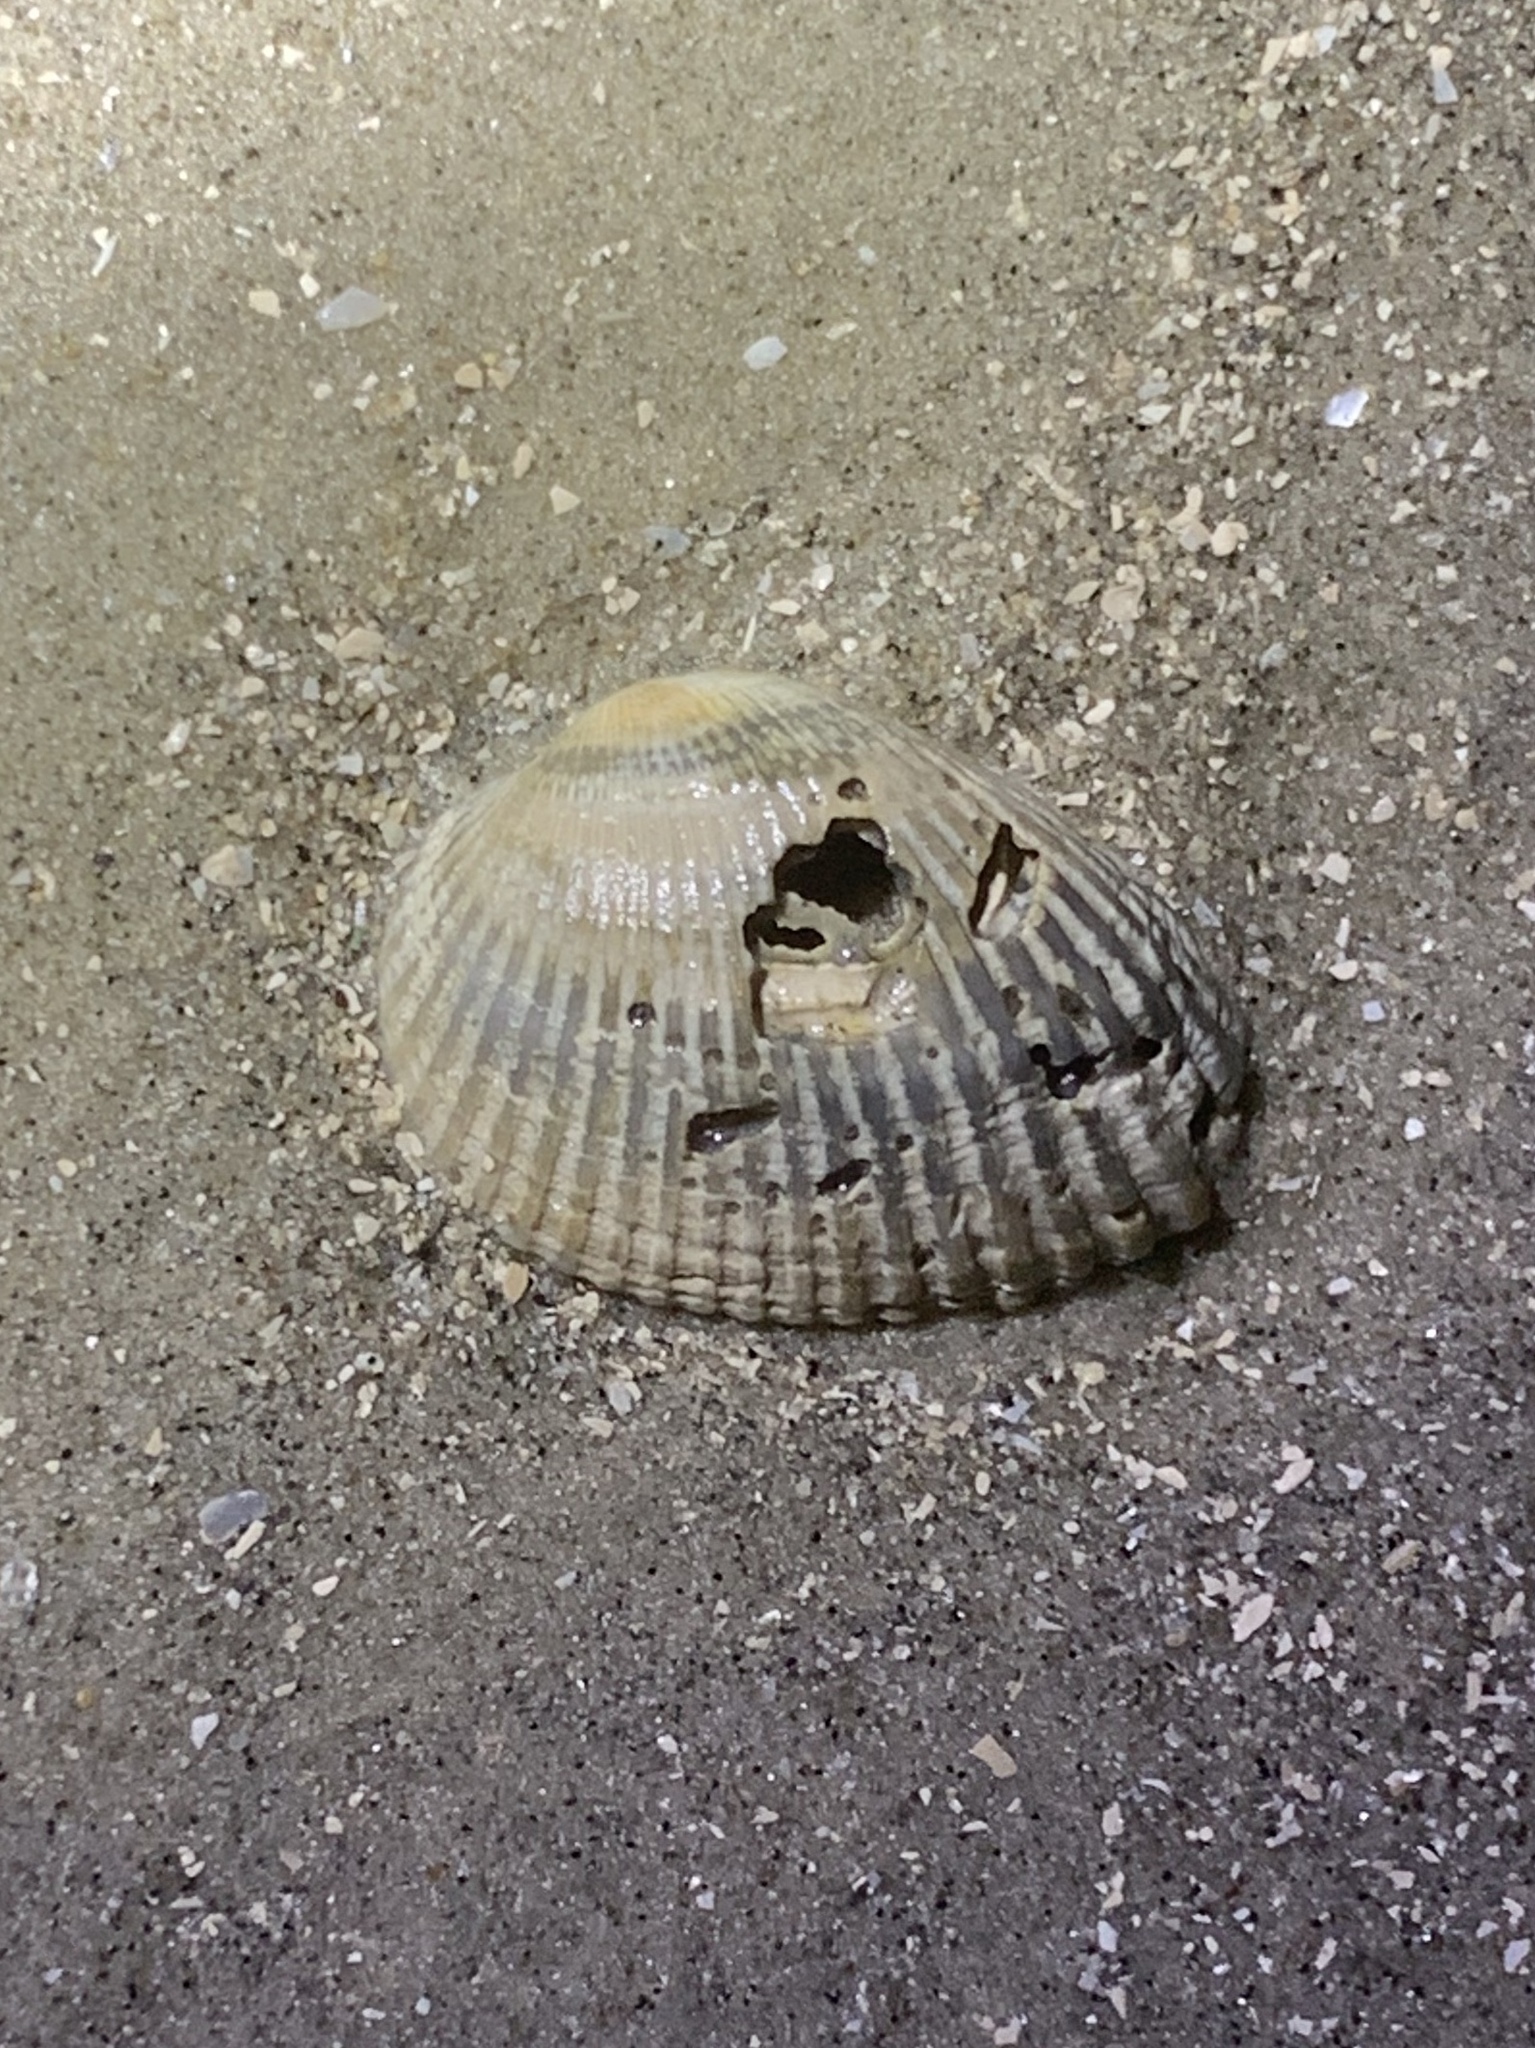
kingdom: Animalia
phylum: Mollusca
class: Bivalvia
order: Arcida
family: Arcidae
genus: Anadara
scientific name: Anadara transversa
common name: Transverse ark
